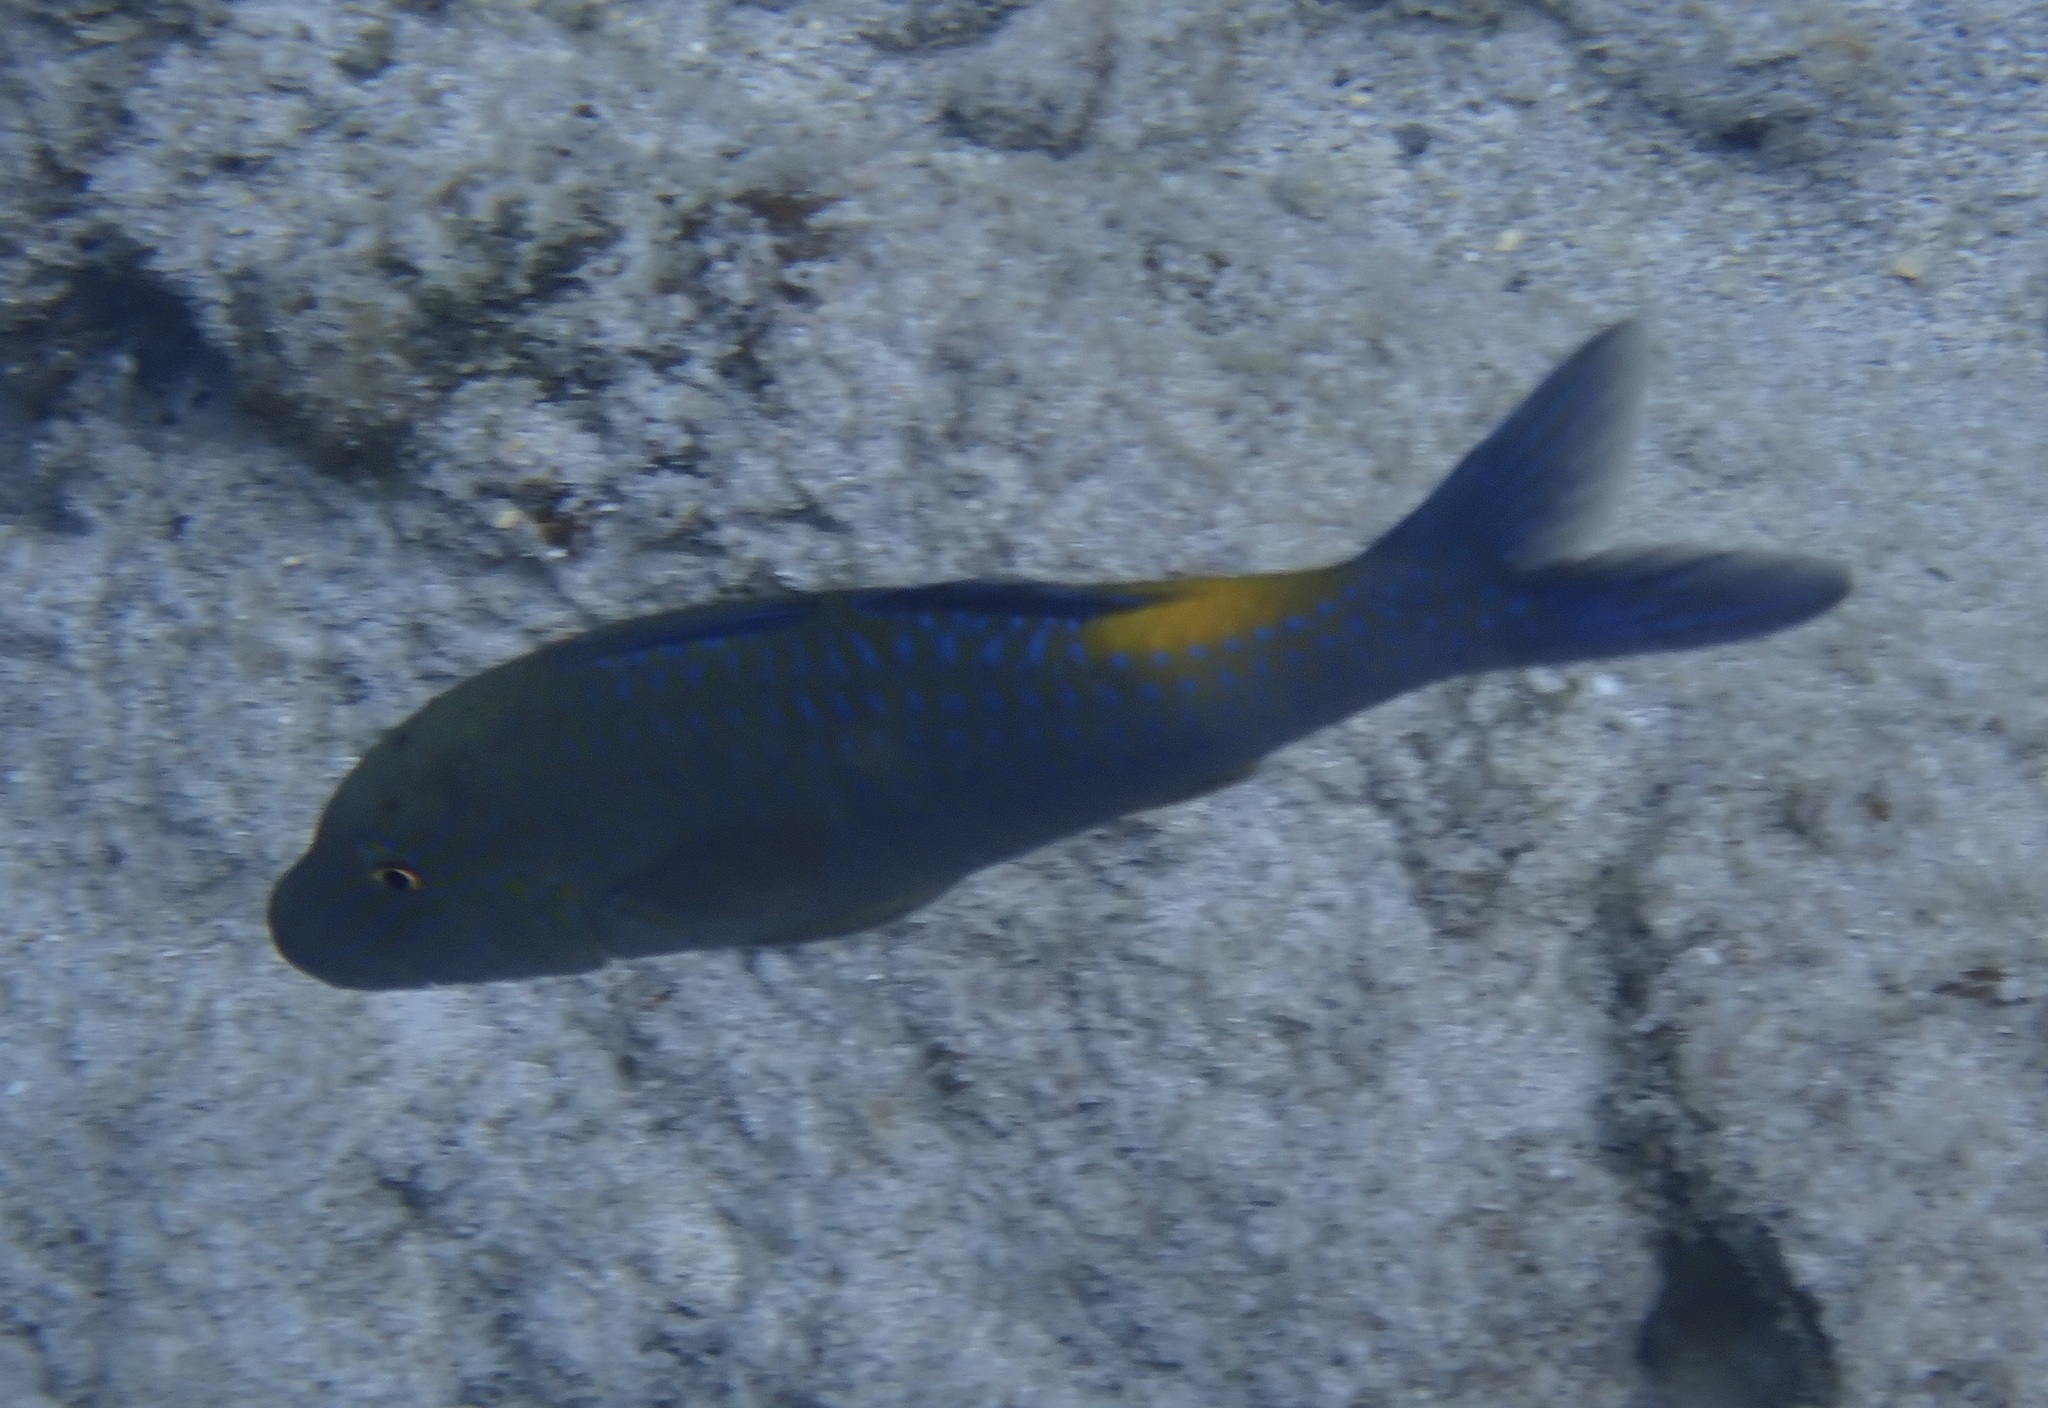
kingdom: Animalia
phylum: Chordata
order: Perciformes
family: Mullidae
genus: Parupeneus
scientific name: Parupeneus cyclostomus
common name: Goldsaddle goatfish
